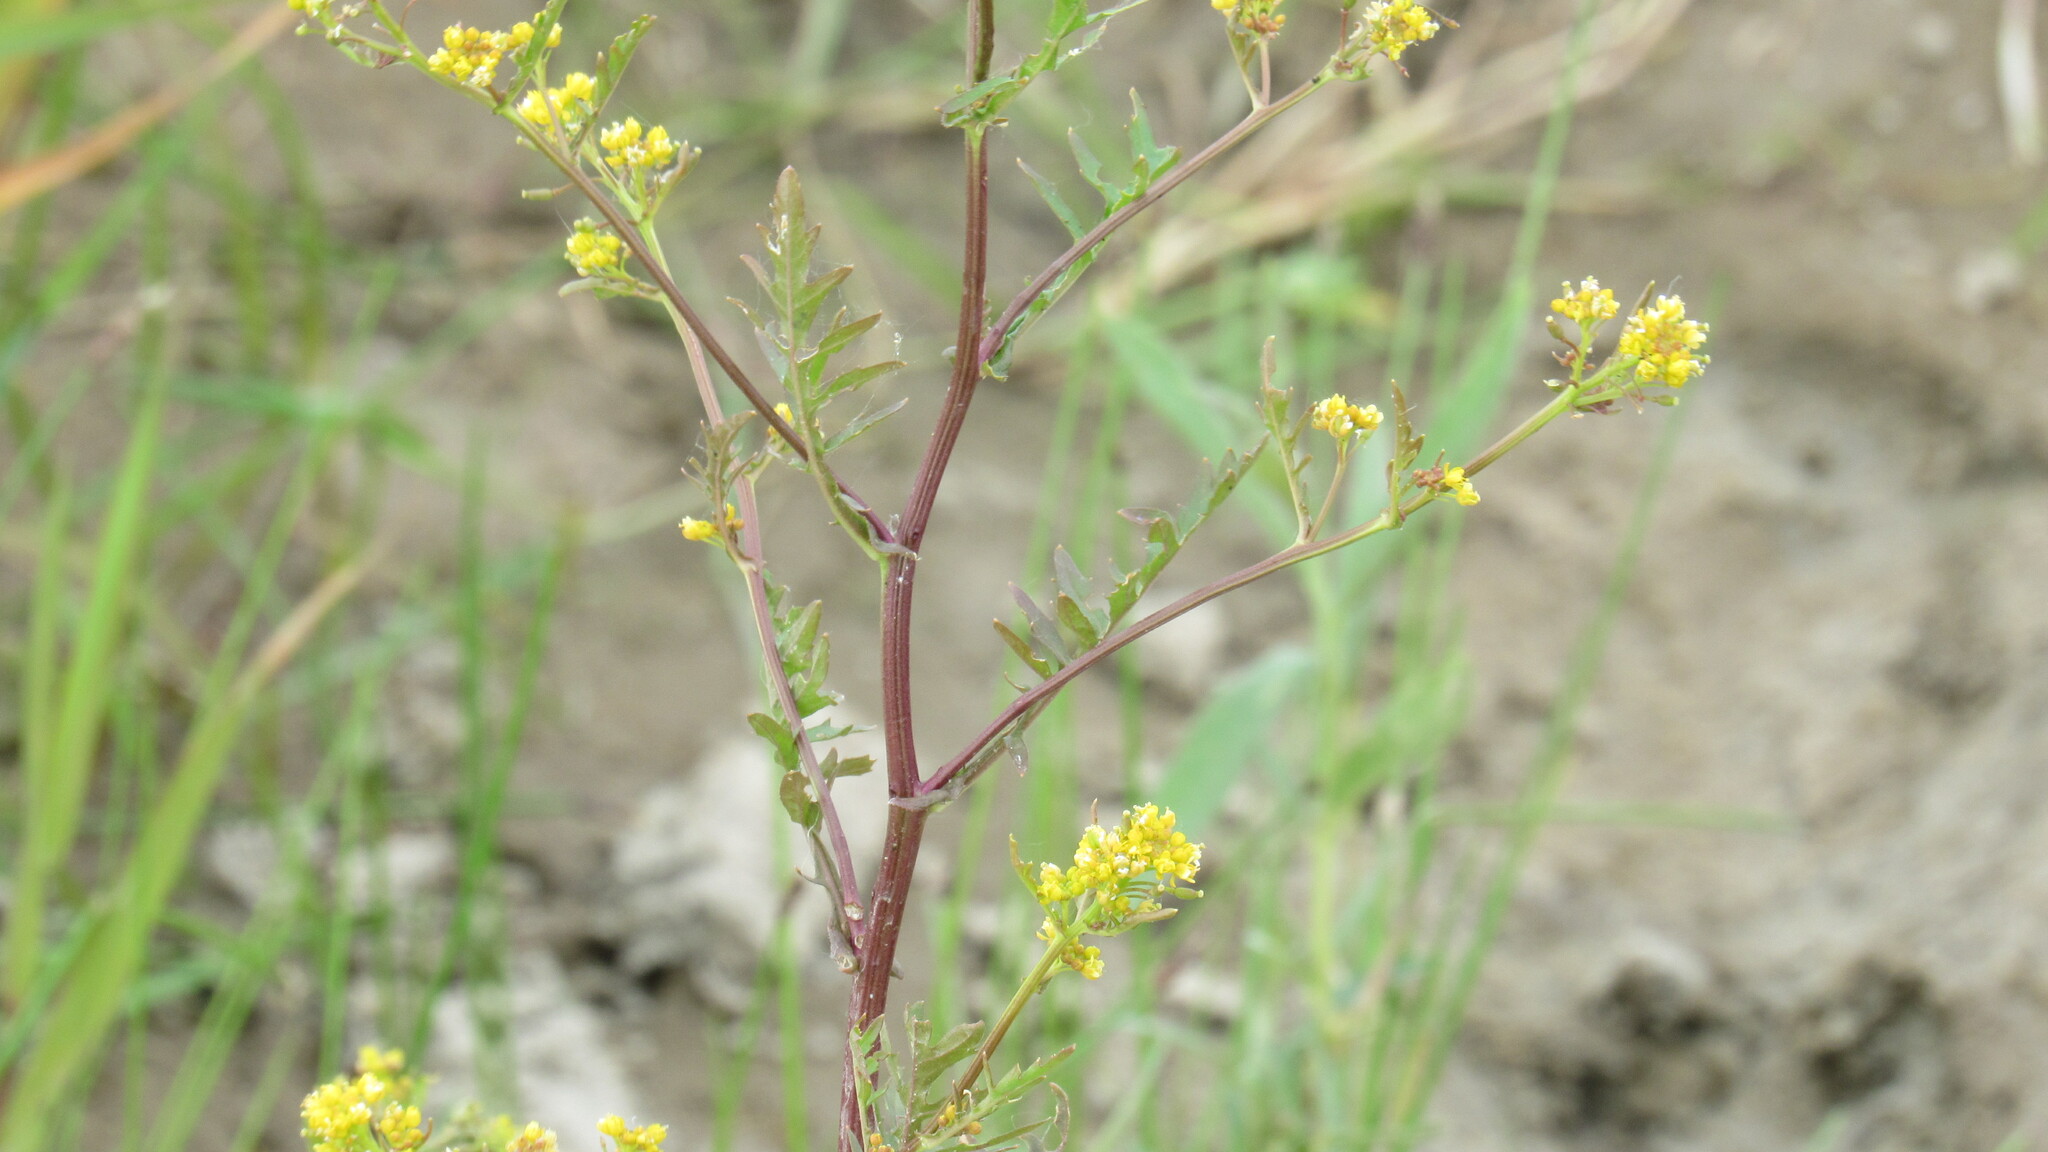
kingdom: Plantae
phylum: Tracheophyta
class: Magnoliopsida
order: Brassicales
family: Brassicaceae
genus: Rorippa
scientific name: Rorippa palustris
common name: Marsh yellow-cress
